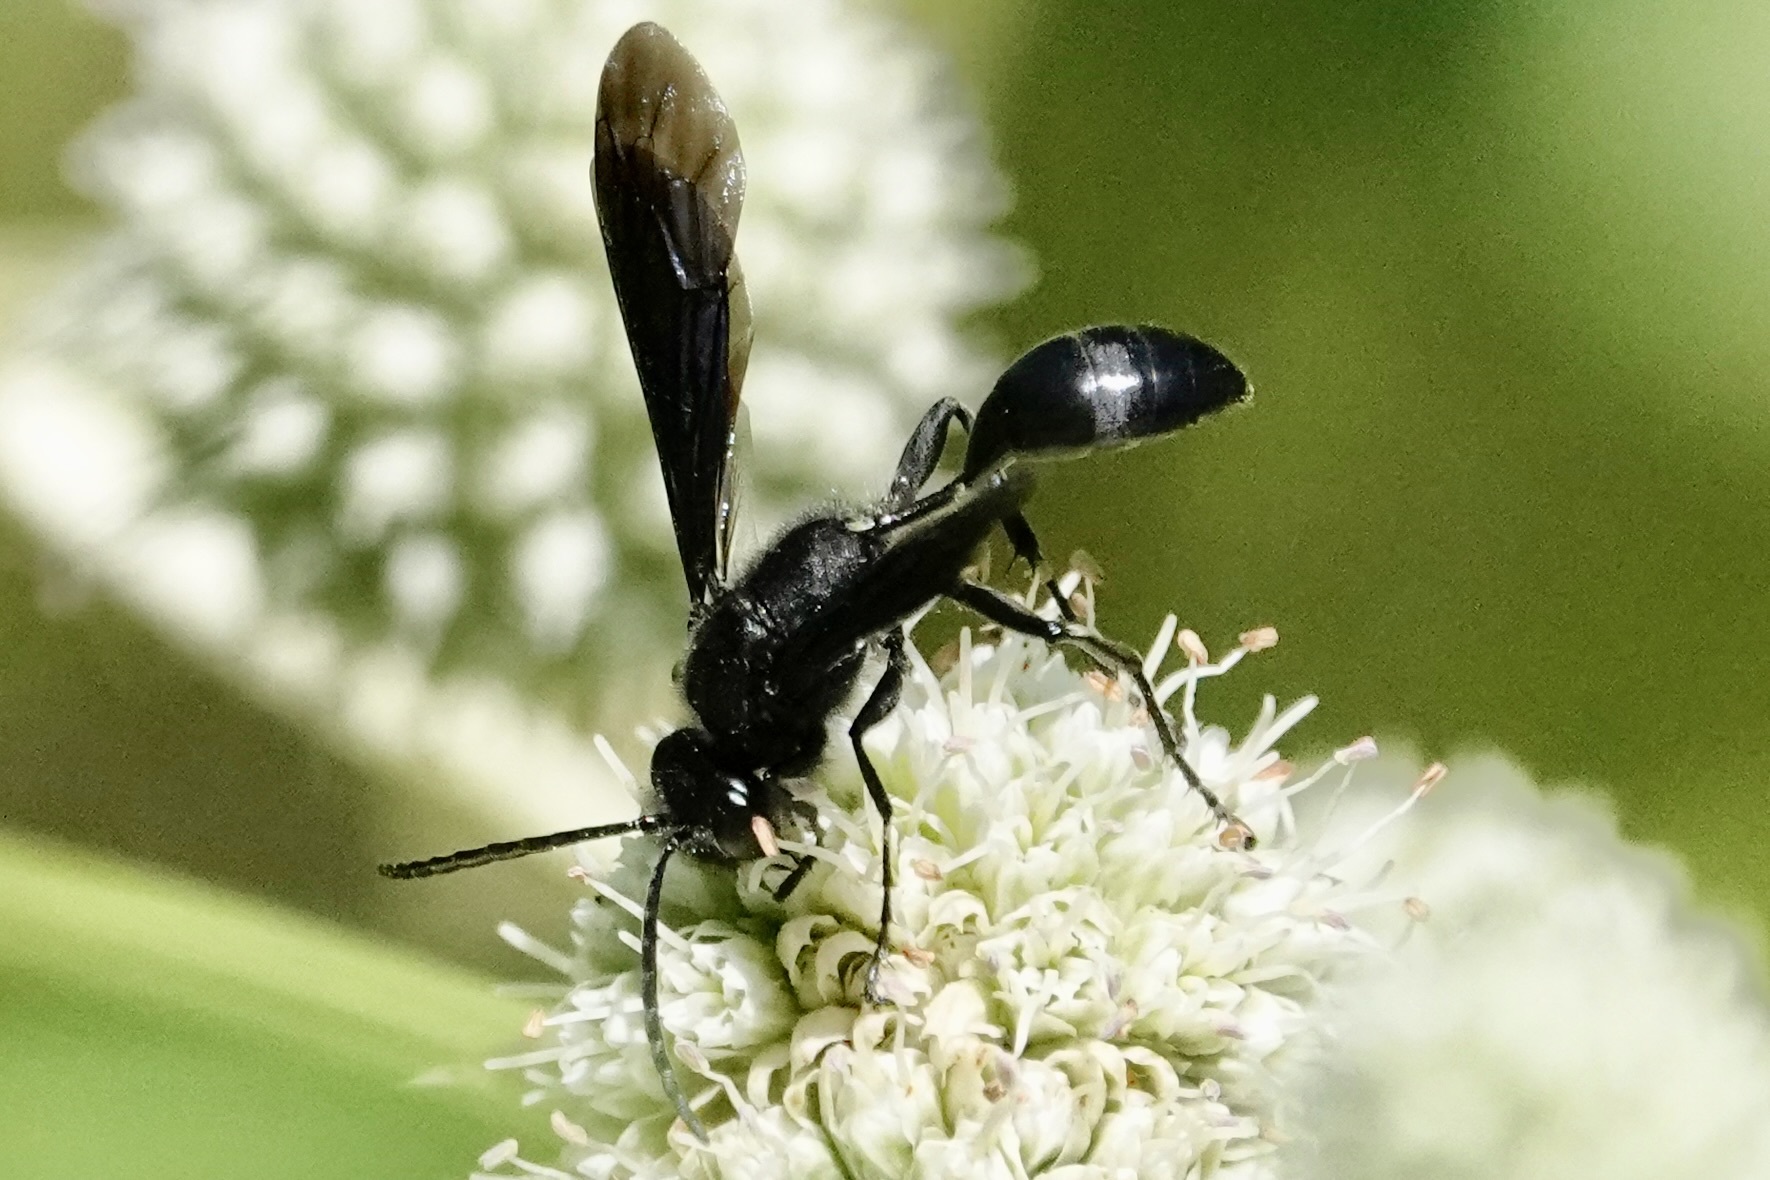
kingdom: Animalia
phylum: Arthropoda
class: Insecta
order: Hymenoptera
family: Sphecidae
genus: Isodontia
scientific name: Isodontia philadelphica
